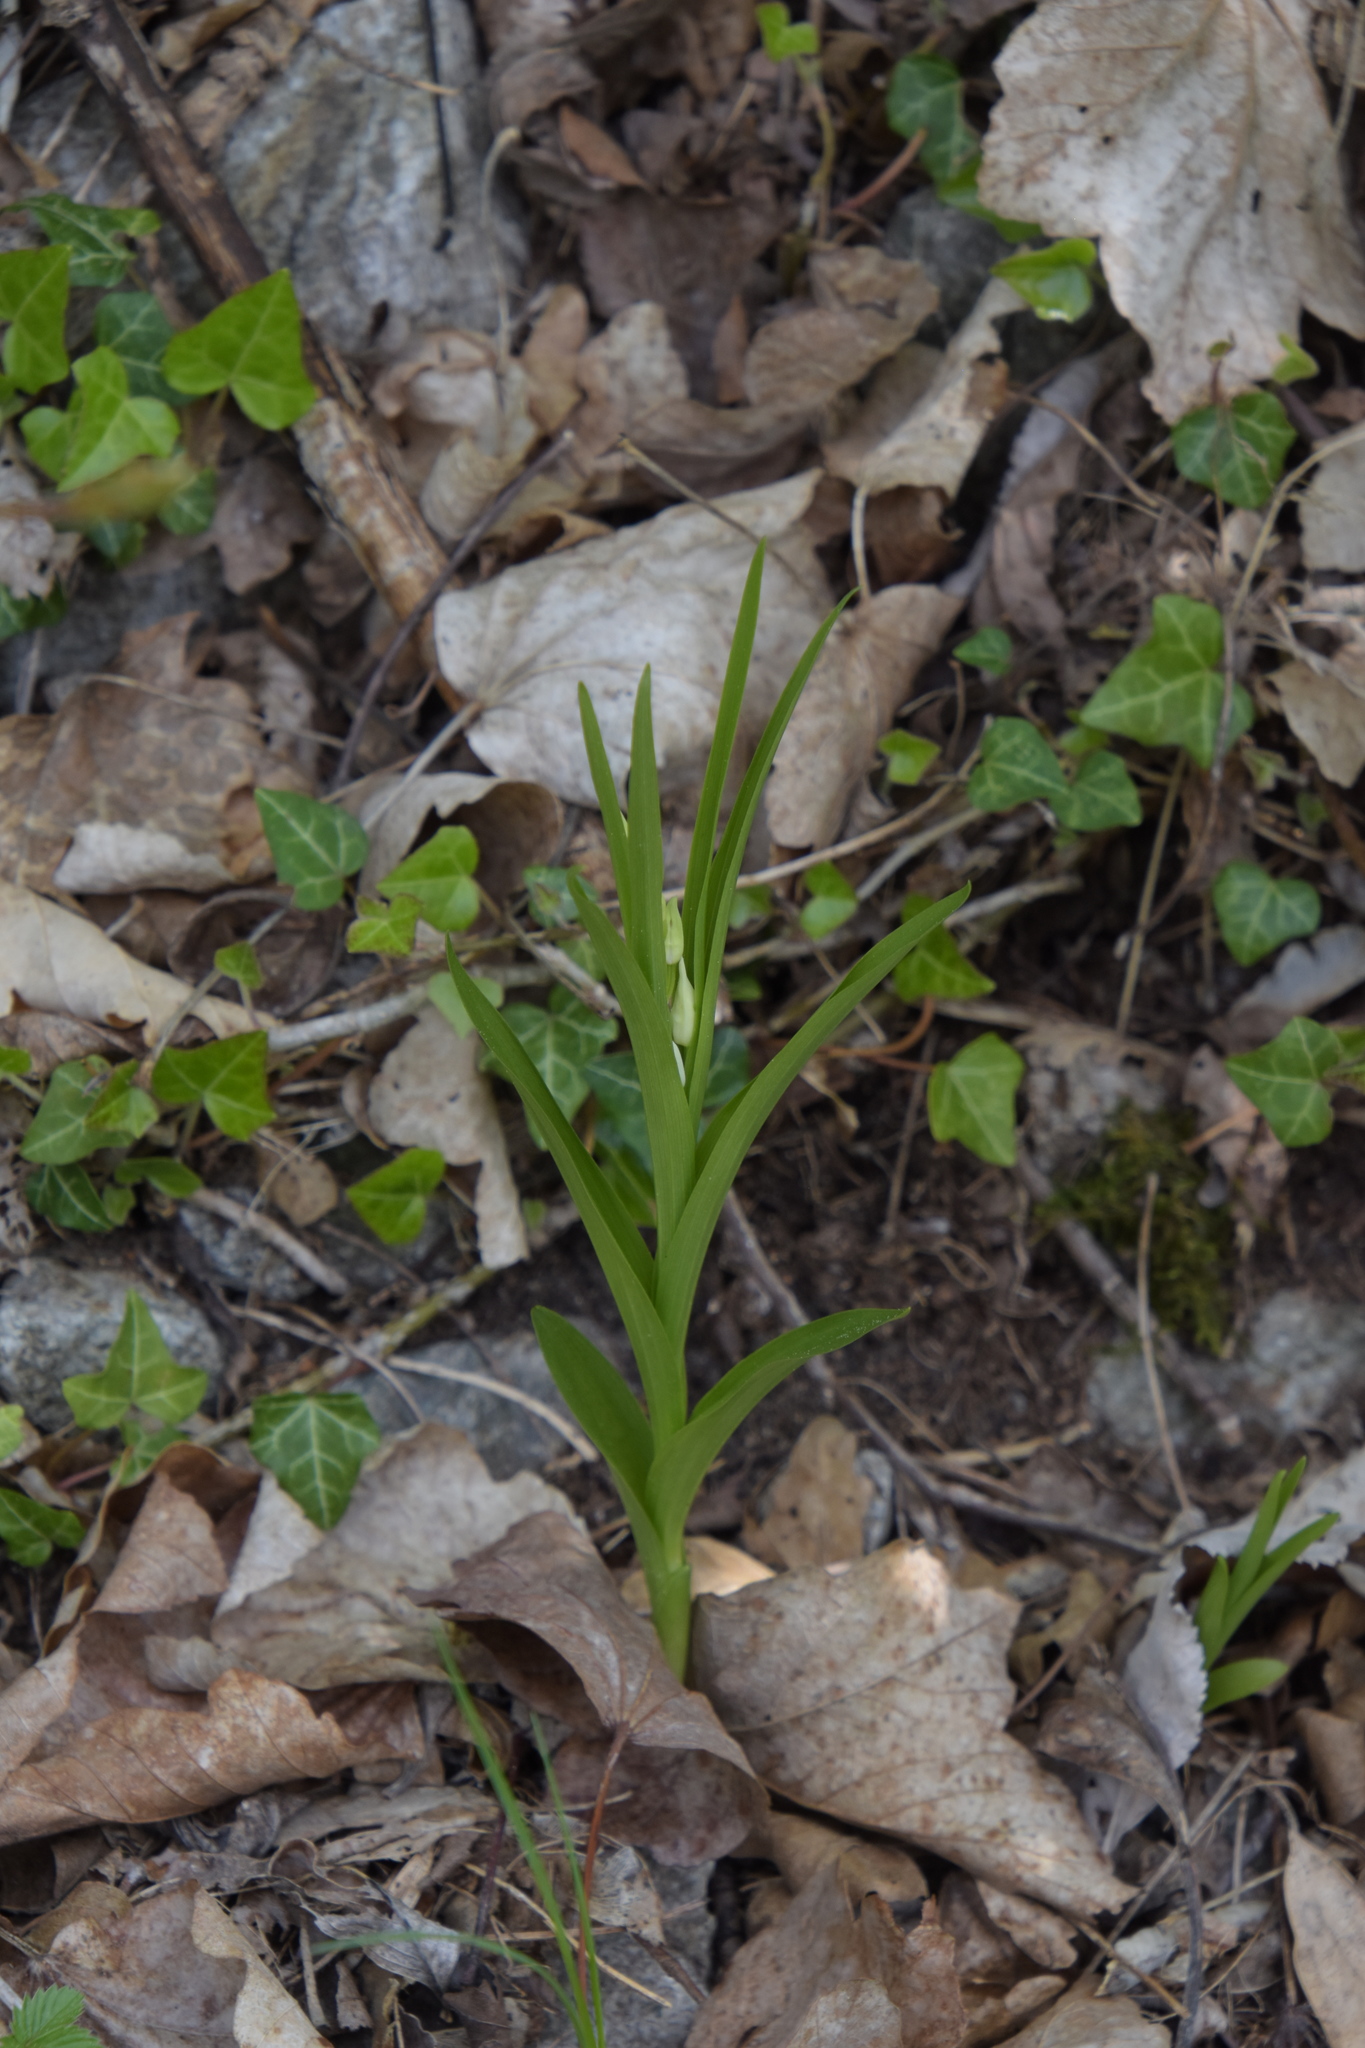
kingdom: Plantae
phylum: Tracheophyta
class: Liliopsida
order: Asparagales
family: Orchidaceae
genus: Cephalanthera
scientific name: Cephalanthera longifolia
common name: Narrow-leaved helleborine
